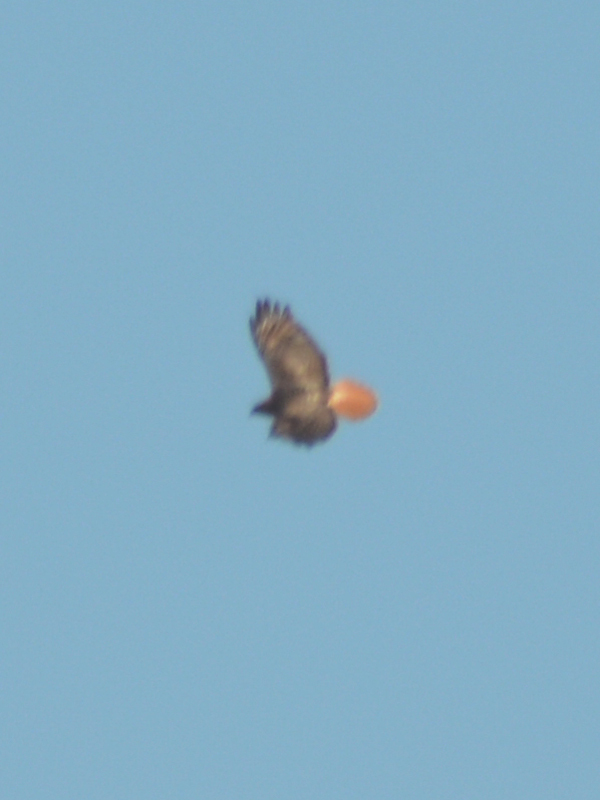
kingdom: Animalia
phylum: Chordata
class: Aves
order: Accipitriformes
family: Accipitridae
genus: Buteo
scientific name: Buteo jamaicensis
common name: Red-tailed hawk
